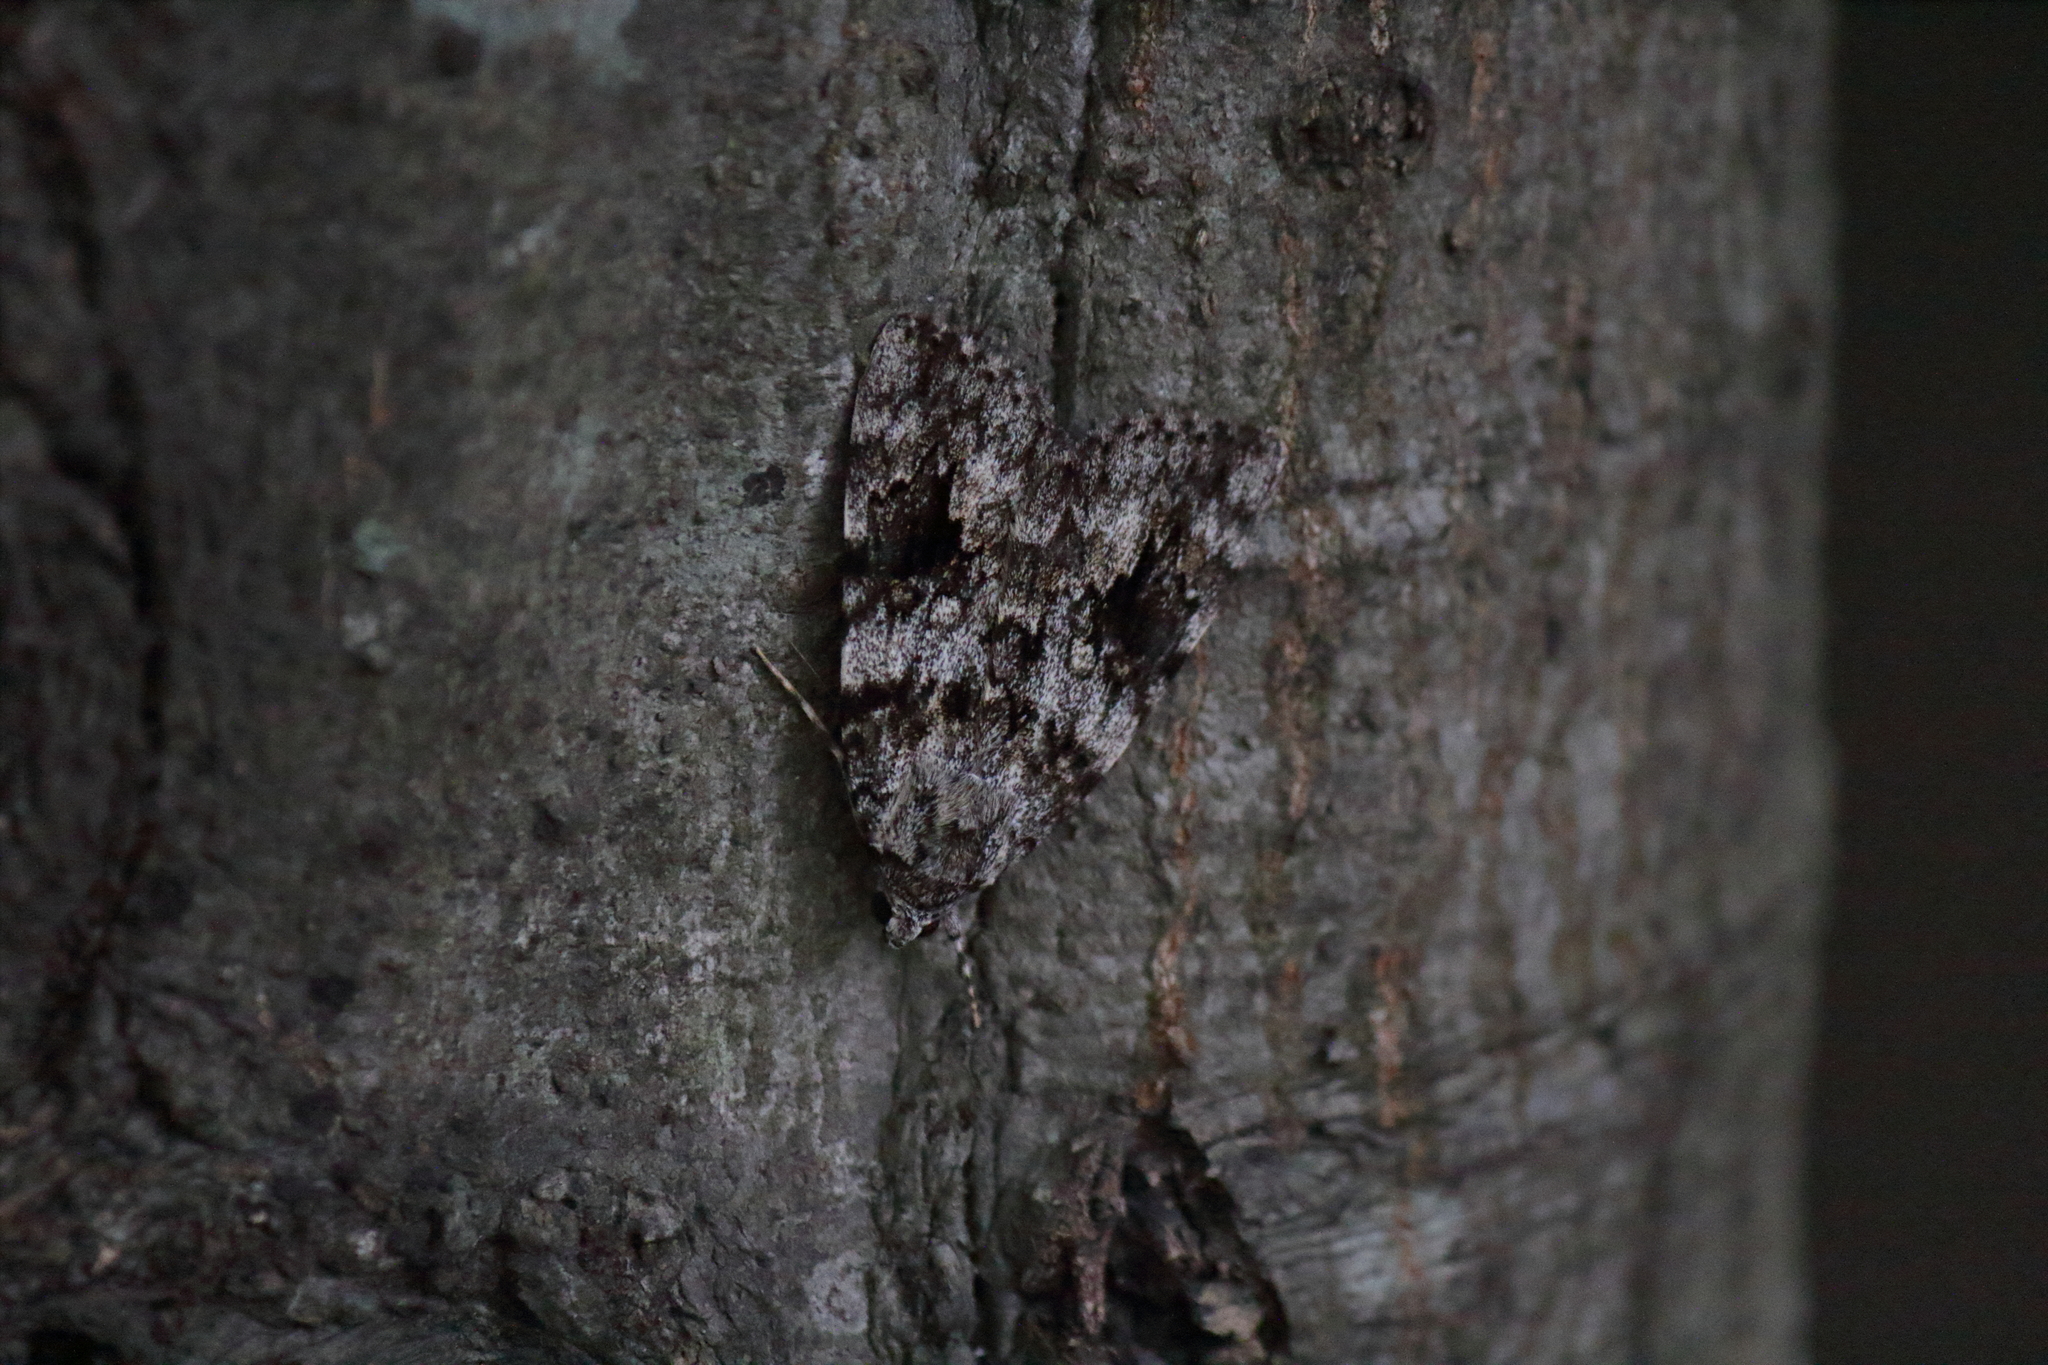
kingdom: Animalia
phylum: Arthropoda
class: Insecta
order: Lepidoptera
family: Erebidae
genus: Catocala
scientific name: Catocala duplicata
